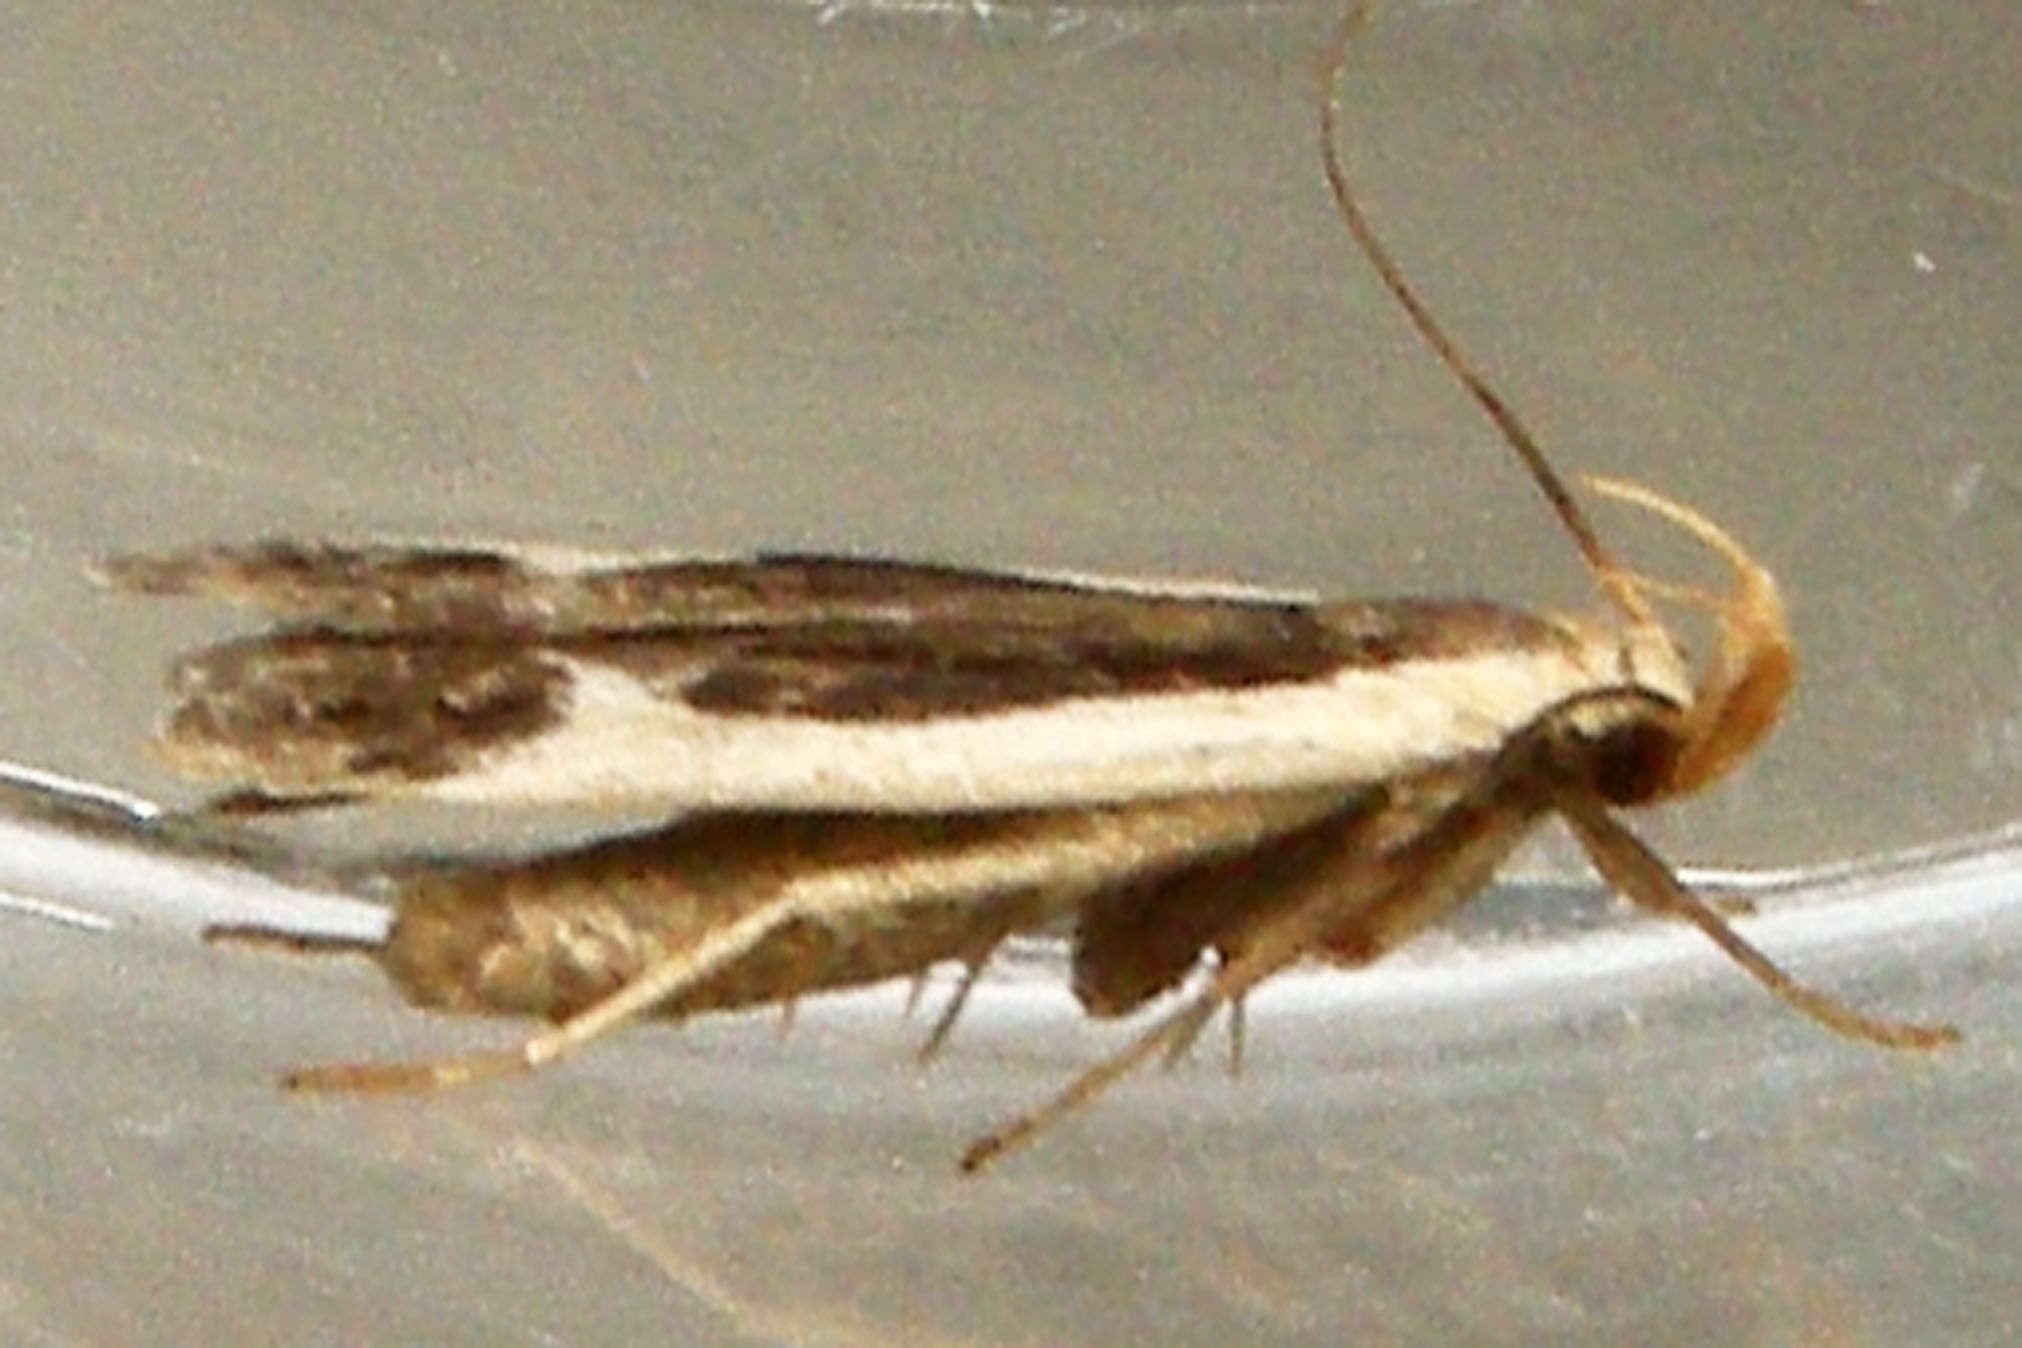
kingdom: Animalia
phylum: Arthropoda
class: Insecta
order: Lepidoptera
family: Gelechiidae
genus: Dichomeris
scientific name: Dichomeris flavocostella
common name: Cream-edged dichomeris moth
